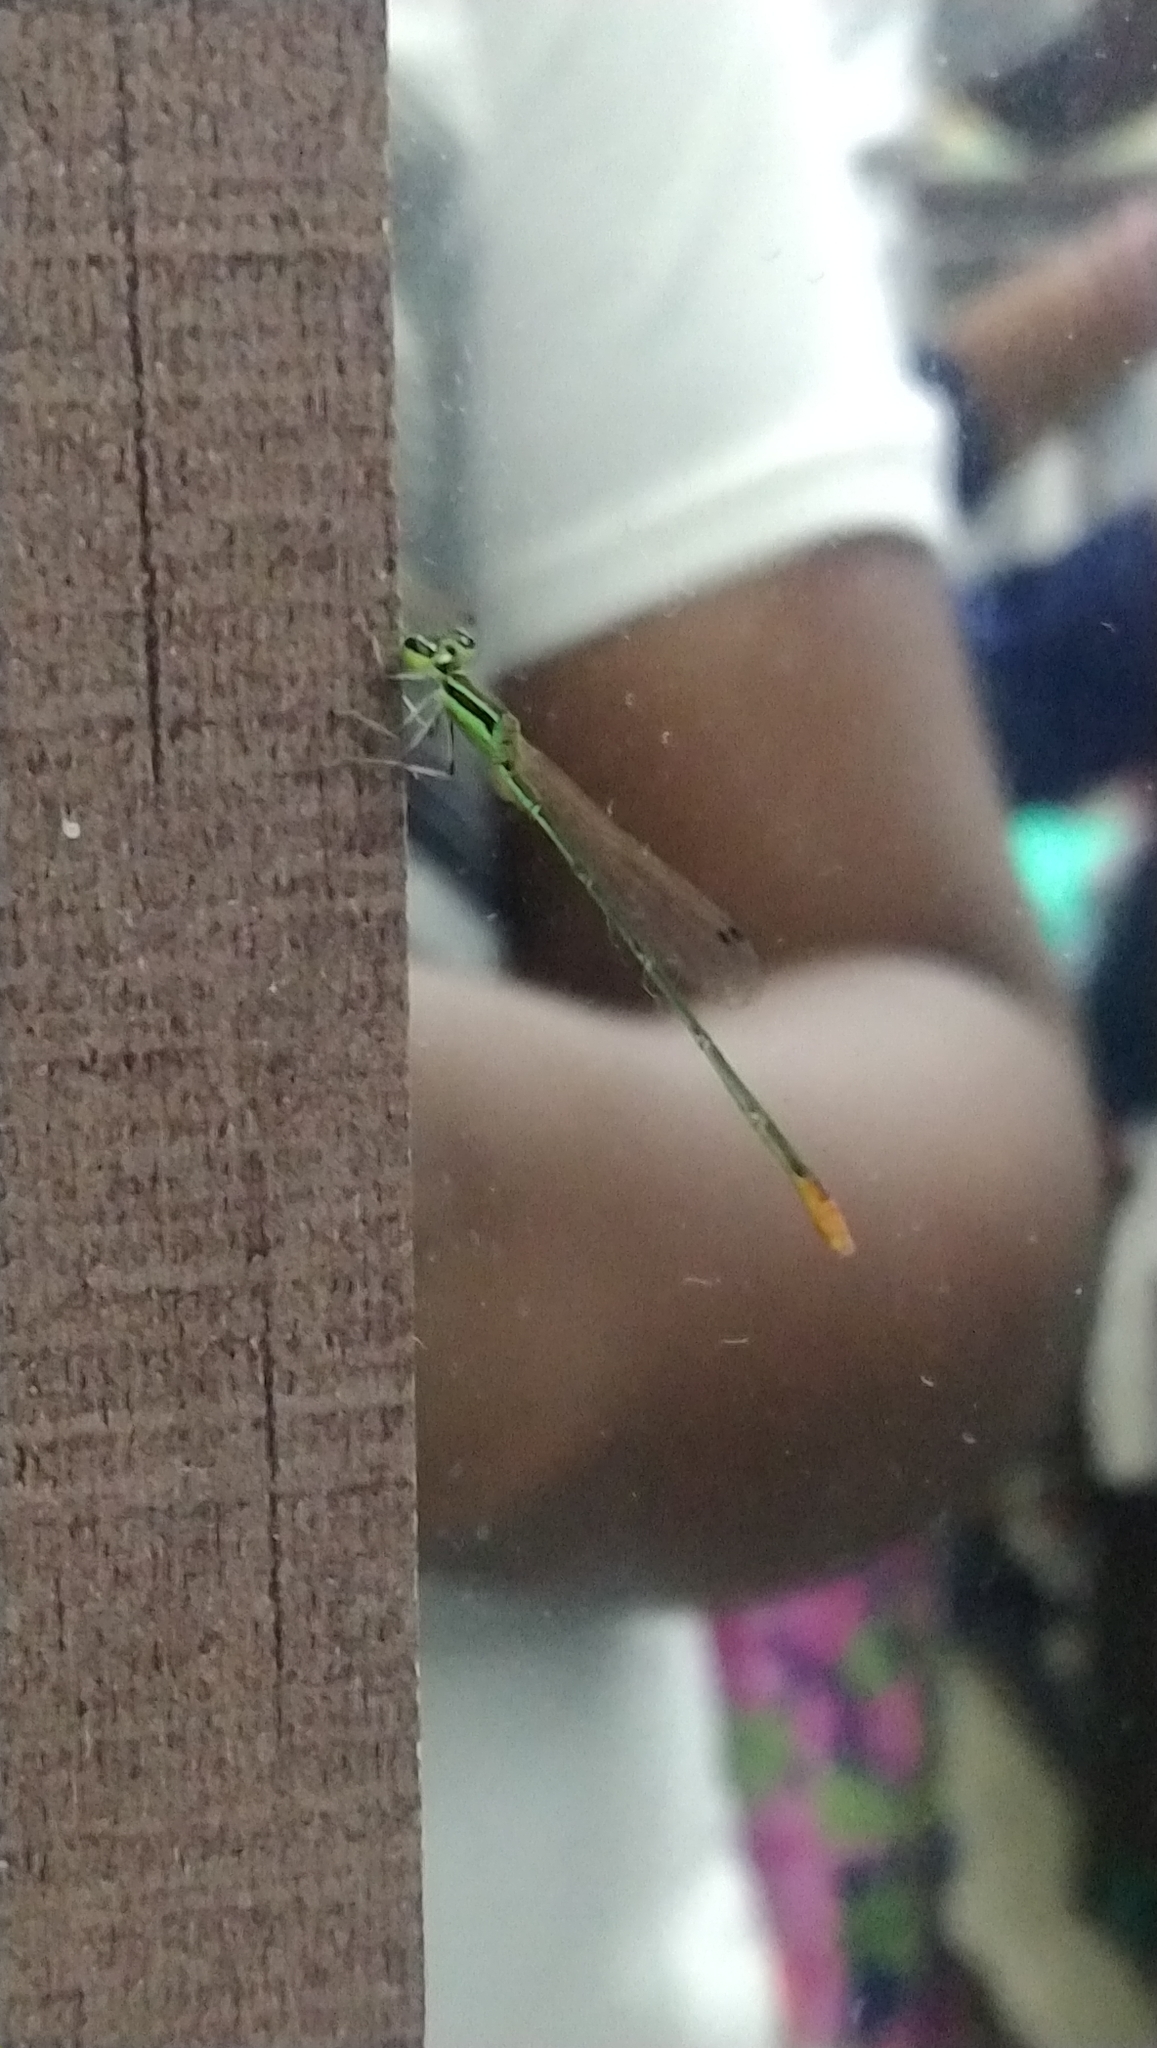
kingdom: Animalia
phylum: Arthropoda
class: Insecta
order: Odonata
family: Coenagrionidae
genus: Agriocnemis
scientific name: Agriocnemis pygmaea
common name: Pygmy wisp
